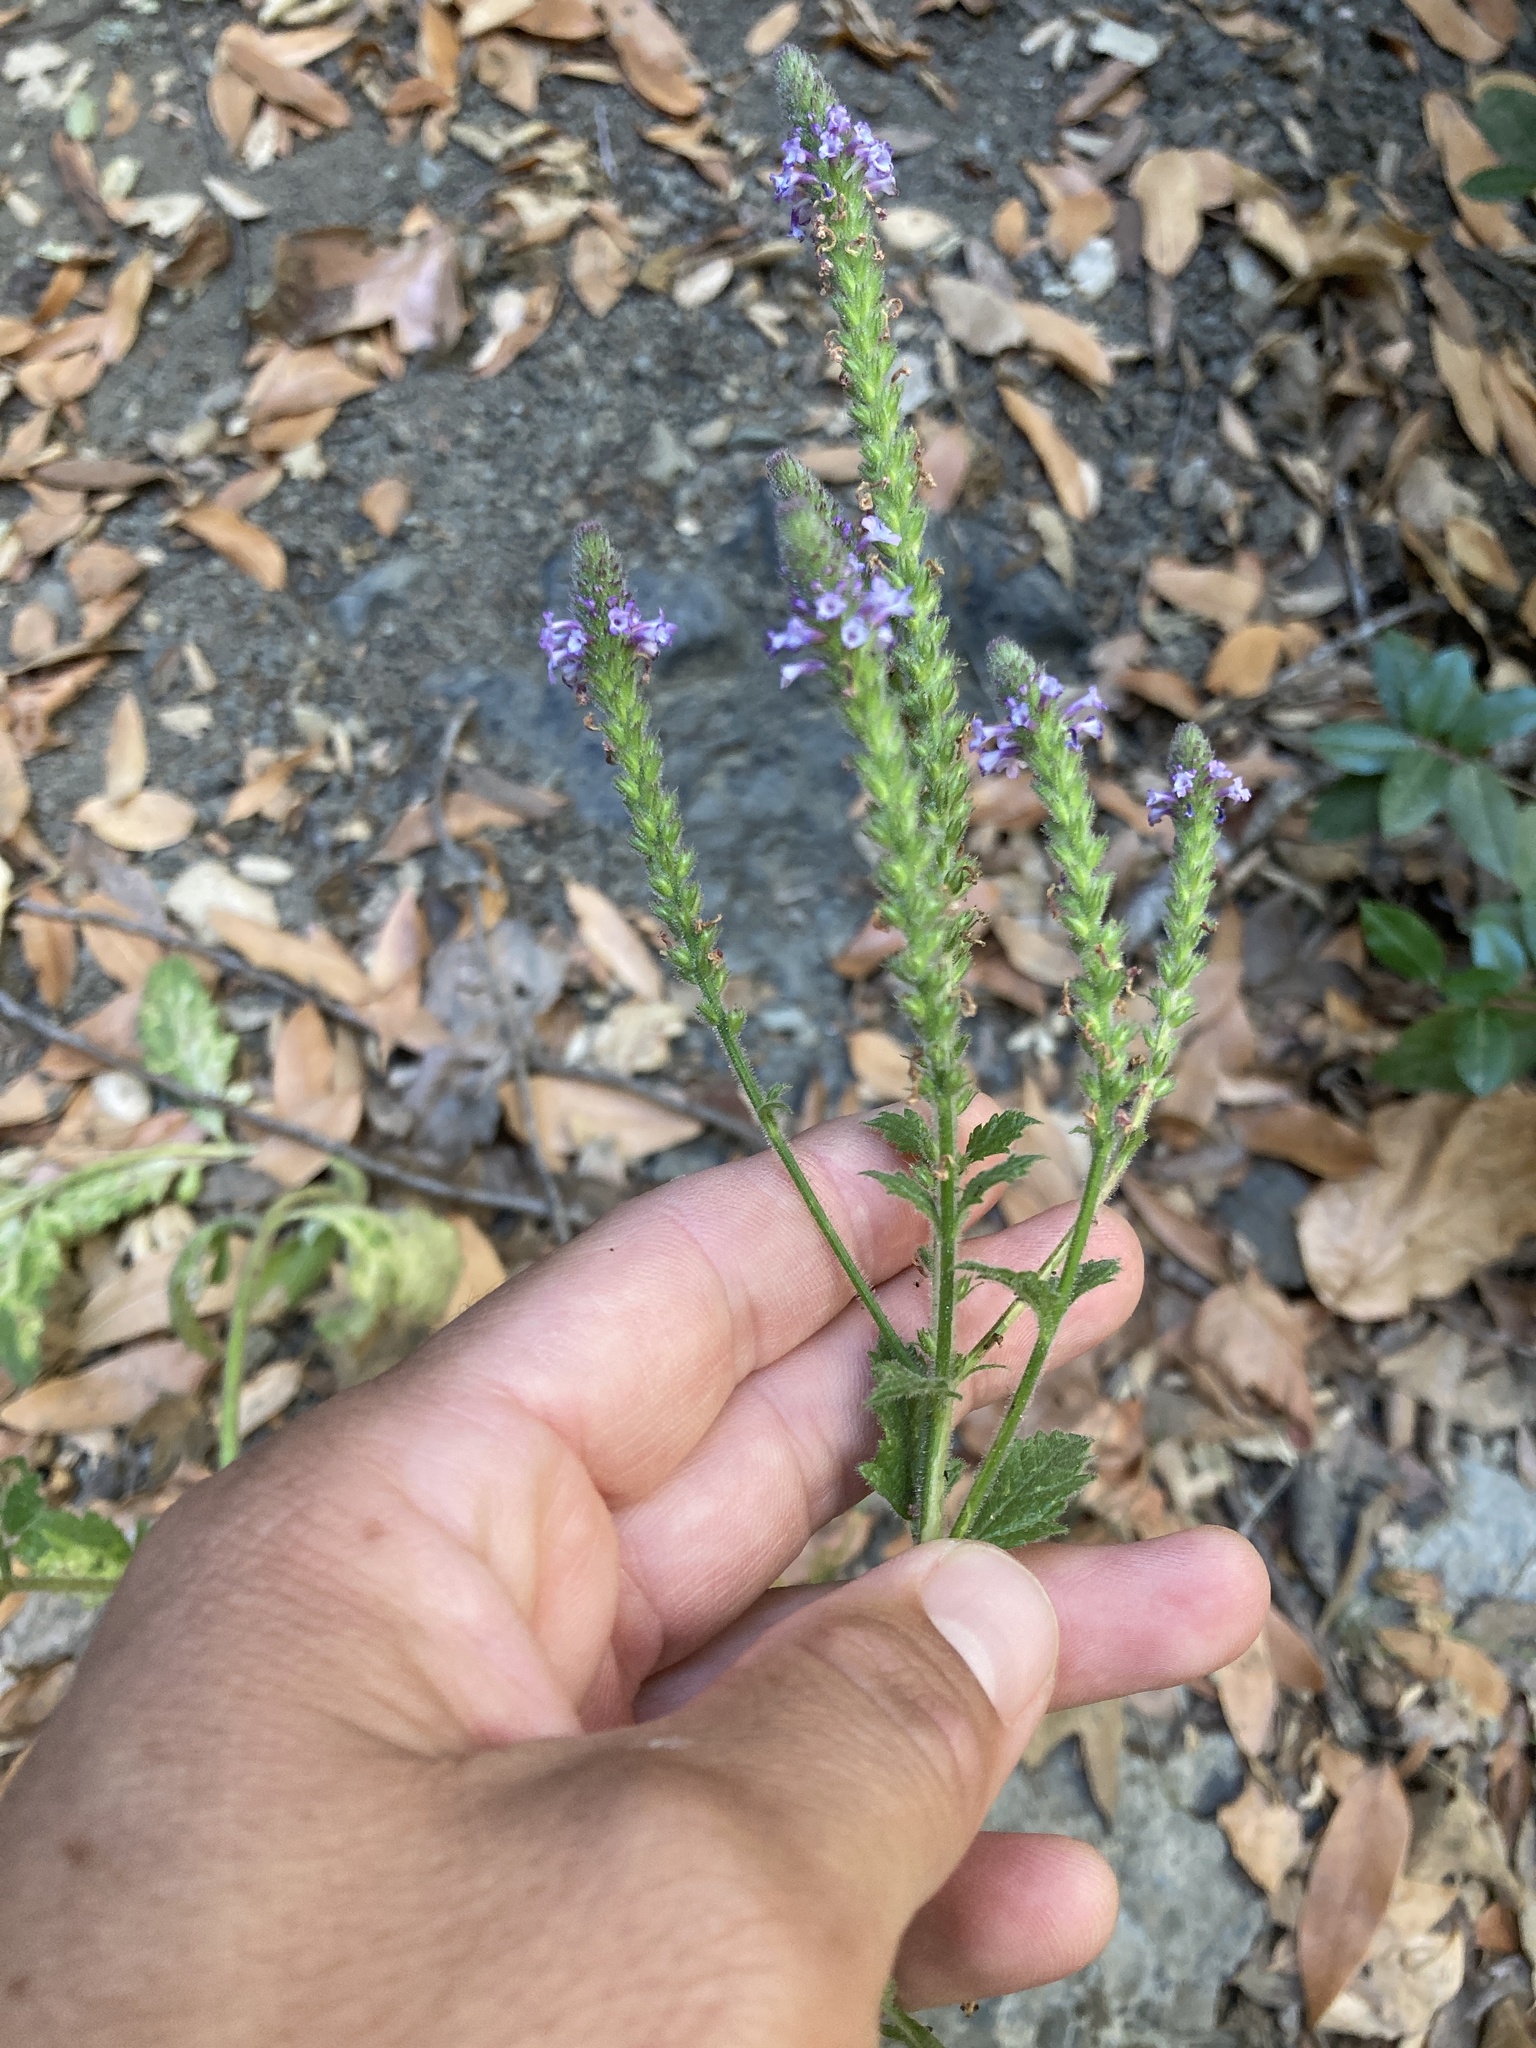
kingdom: Plantae
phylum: Tracheophyta
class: Magnoliopsida
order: Lamiales
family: Verbenaceae
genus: Verbena
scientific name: Verbena lasiostachys
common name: Vervain
